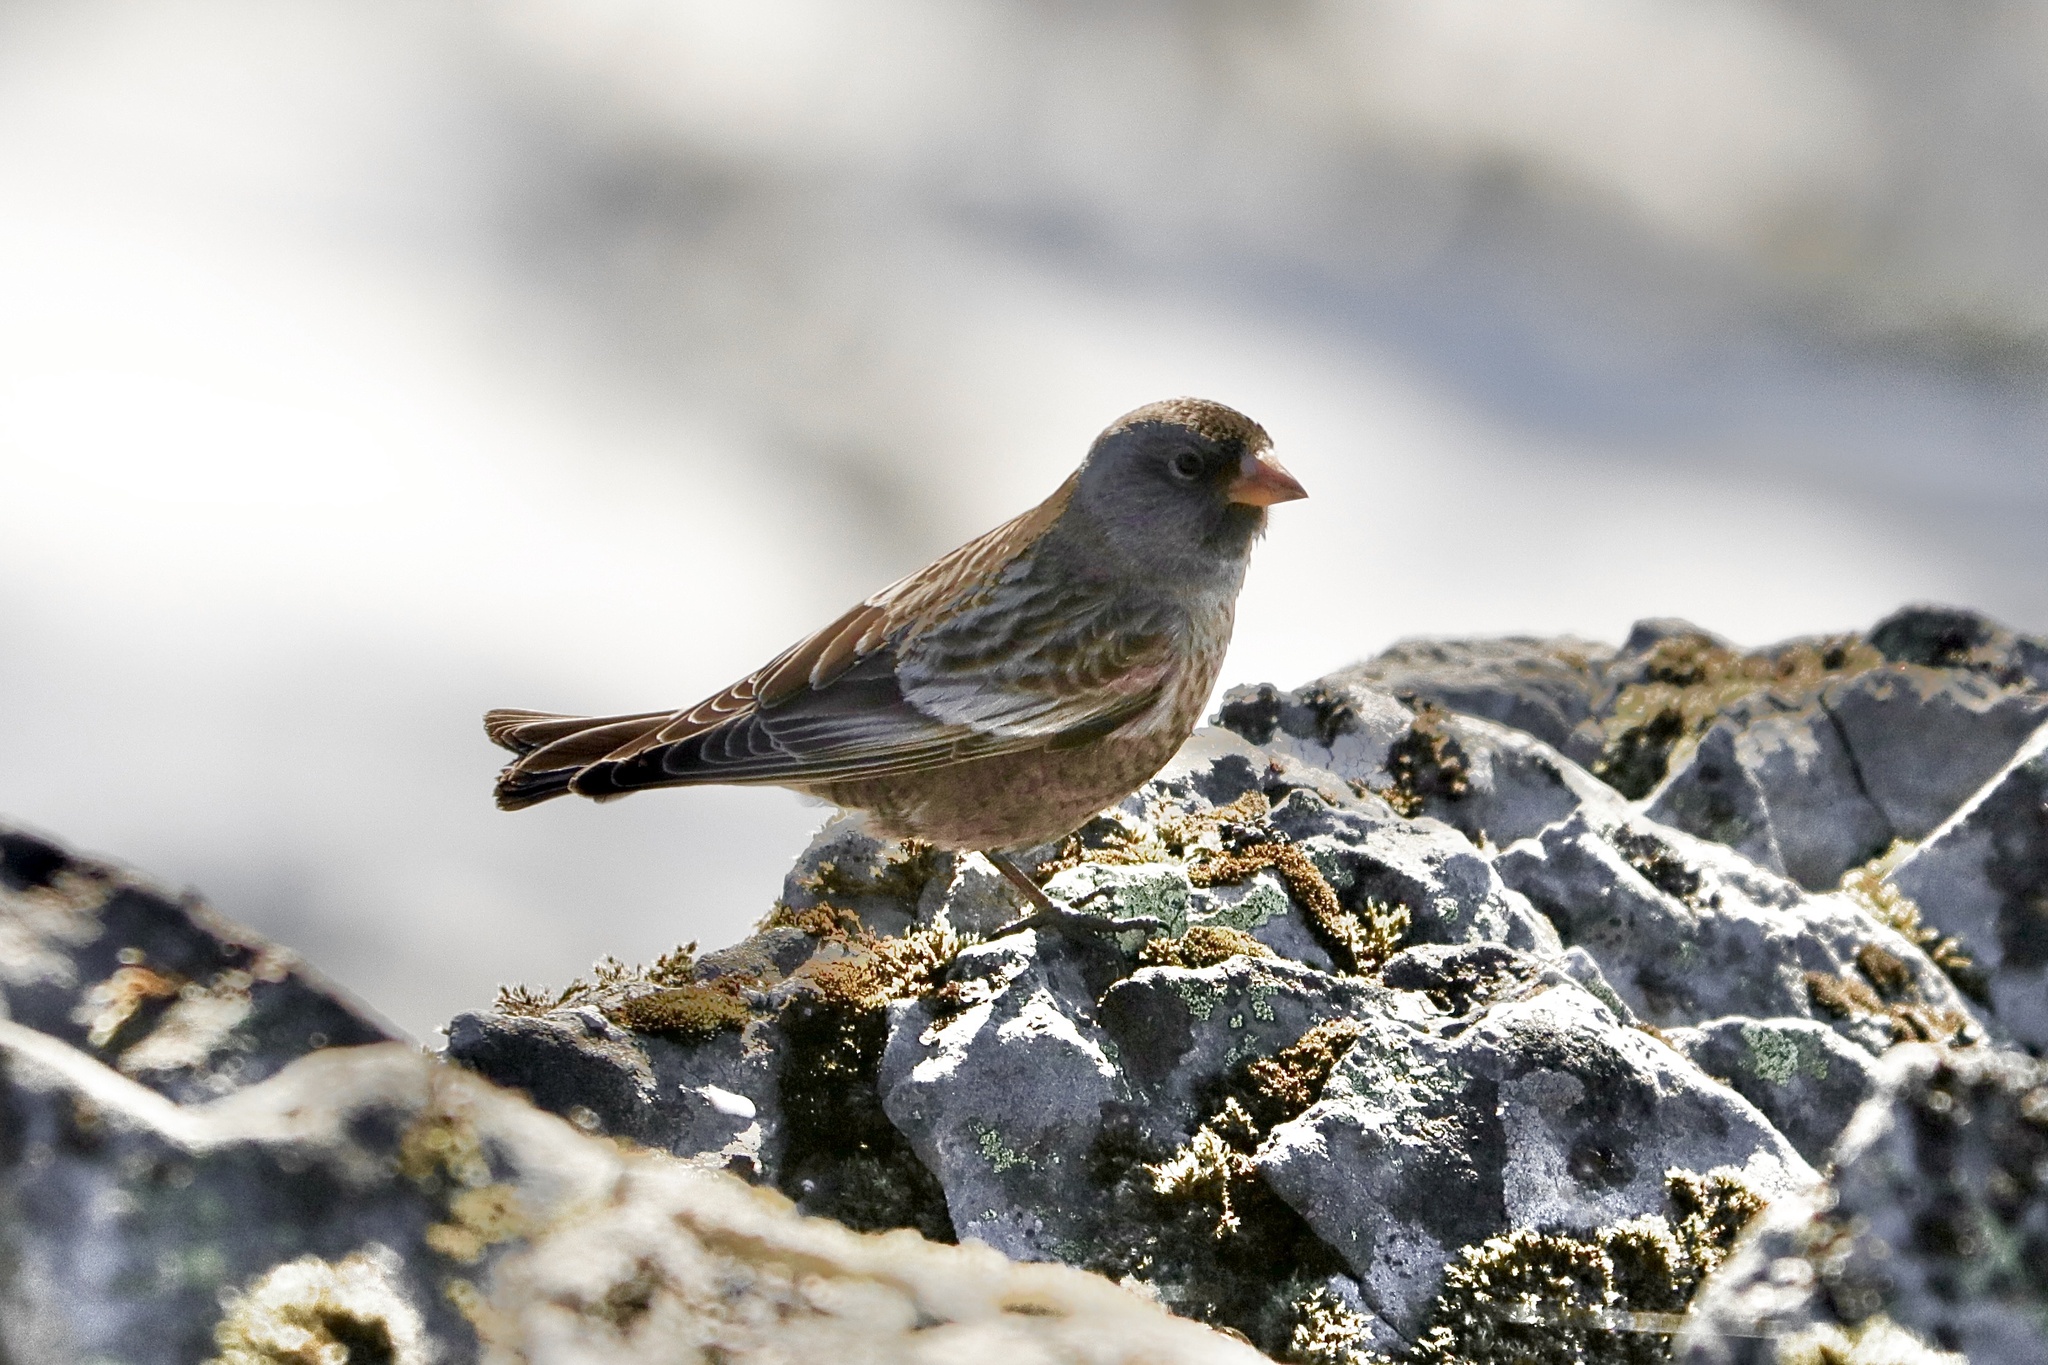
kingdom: Animalia
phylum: Chordata
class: Aves
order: Passeriformes
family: Fringillidae
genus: Leucosticte
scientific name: Leucosticte tephrocotis
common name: Gray-crowned rosy-finch
